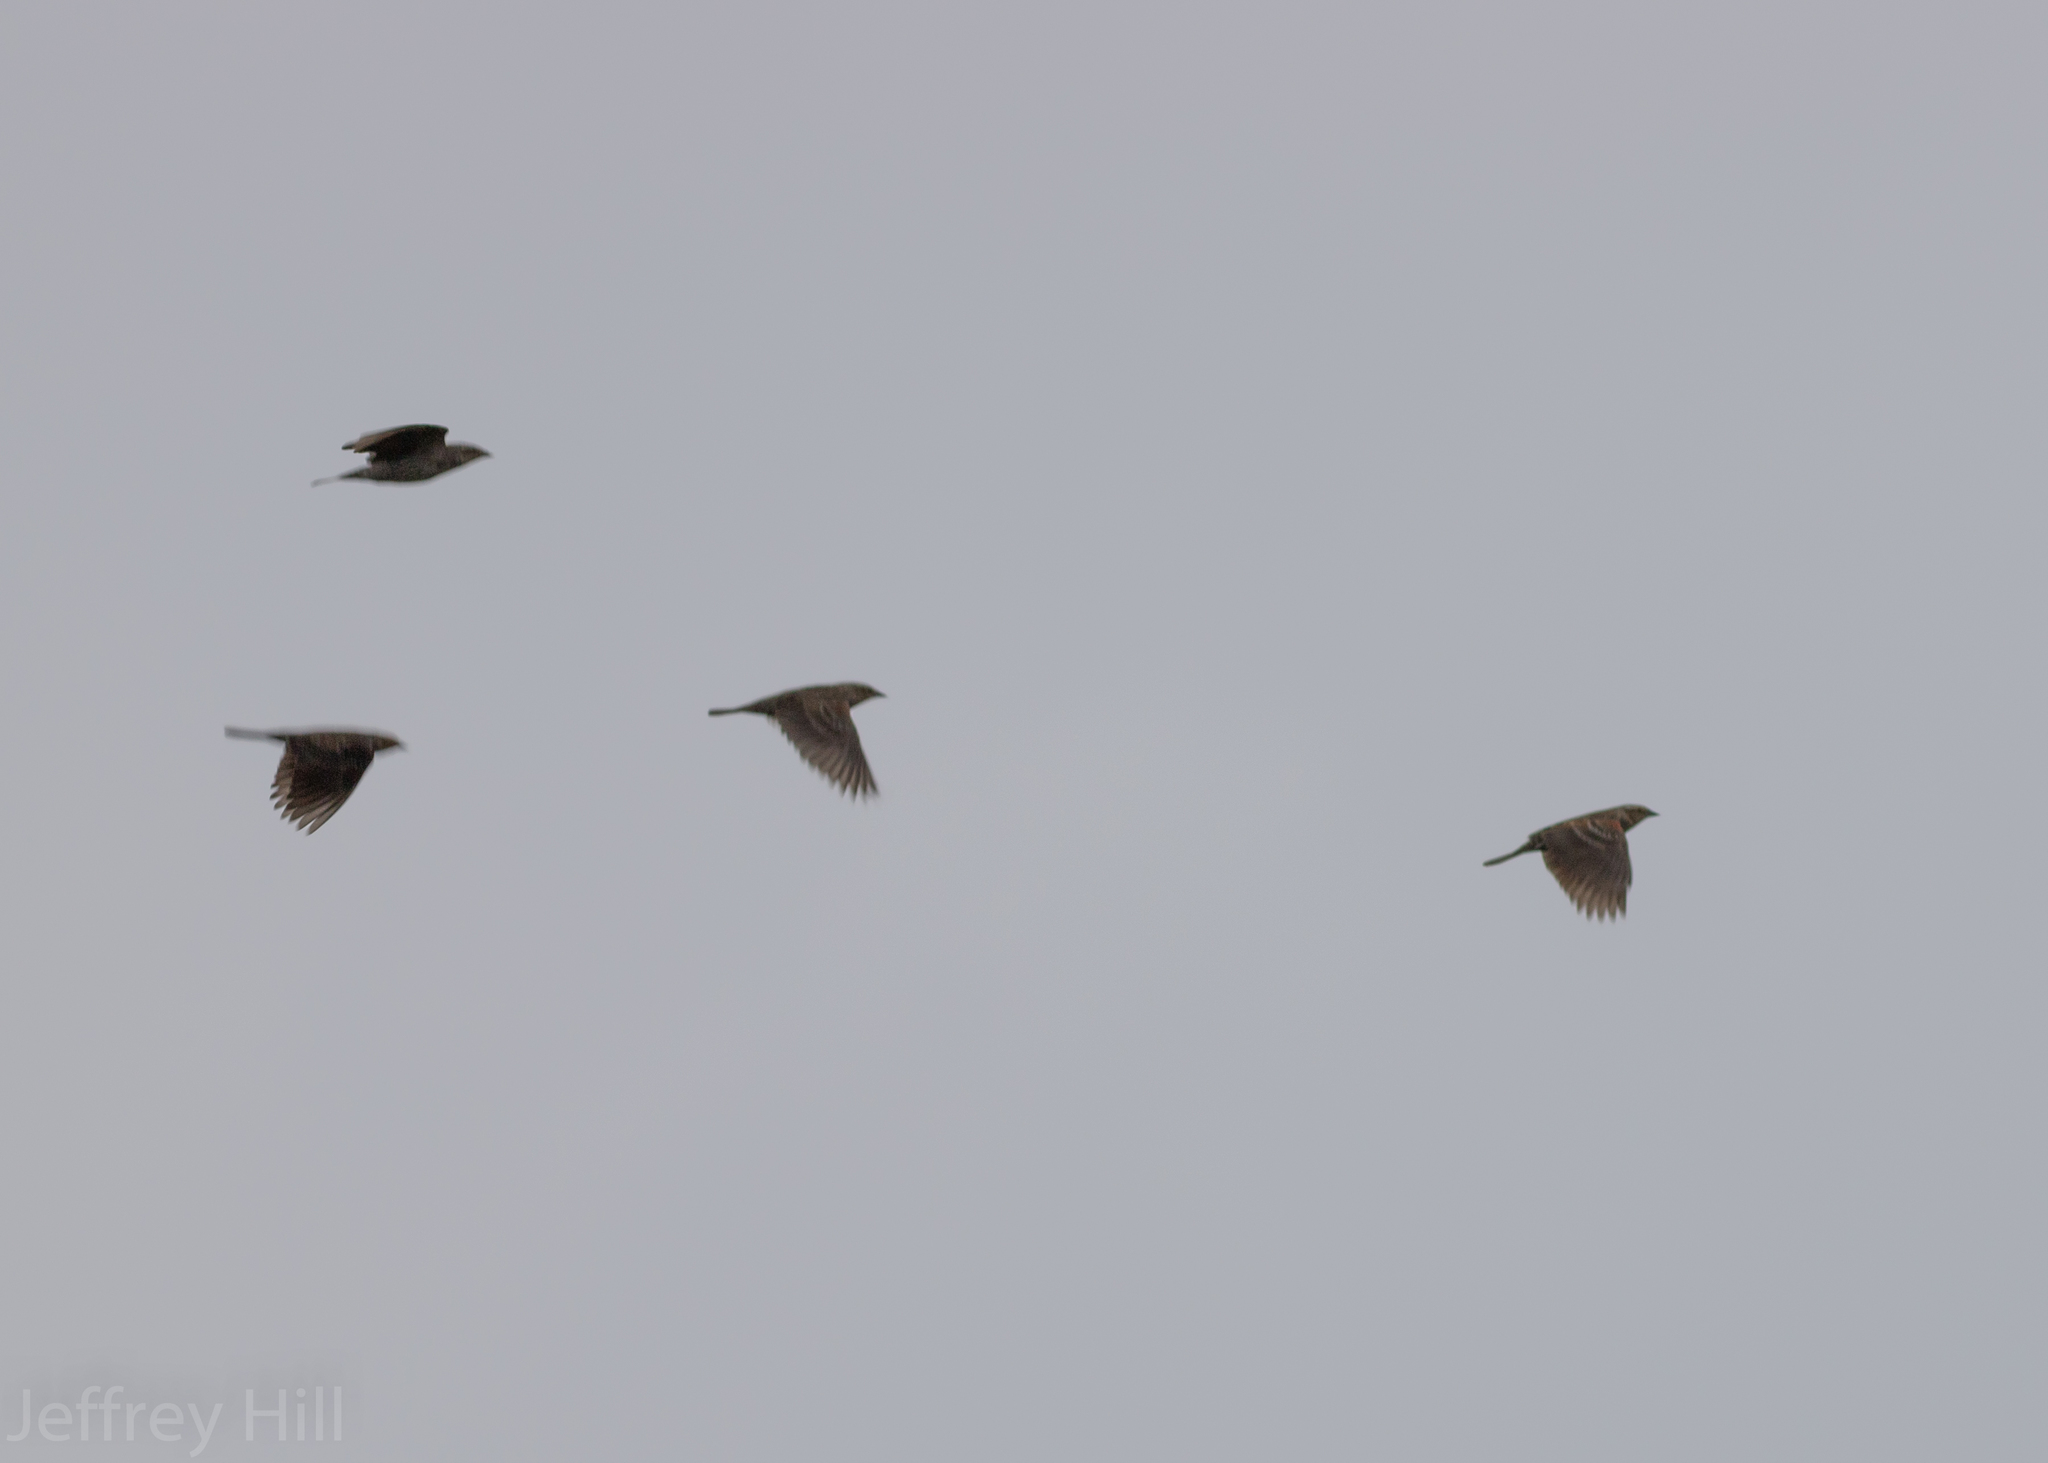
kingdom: Animalia
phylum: Chordata
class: Aves
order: Passeriformes
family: Icteridae
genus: Agelaius
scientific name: Agelaius phoeniceus
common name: Red-winged blackbird
